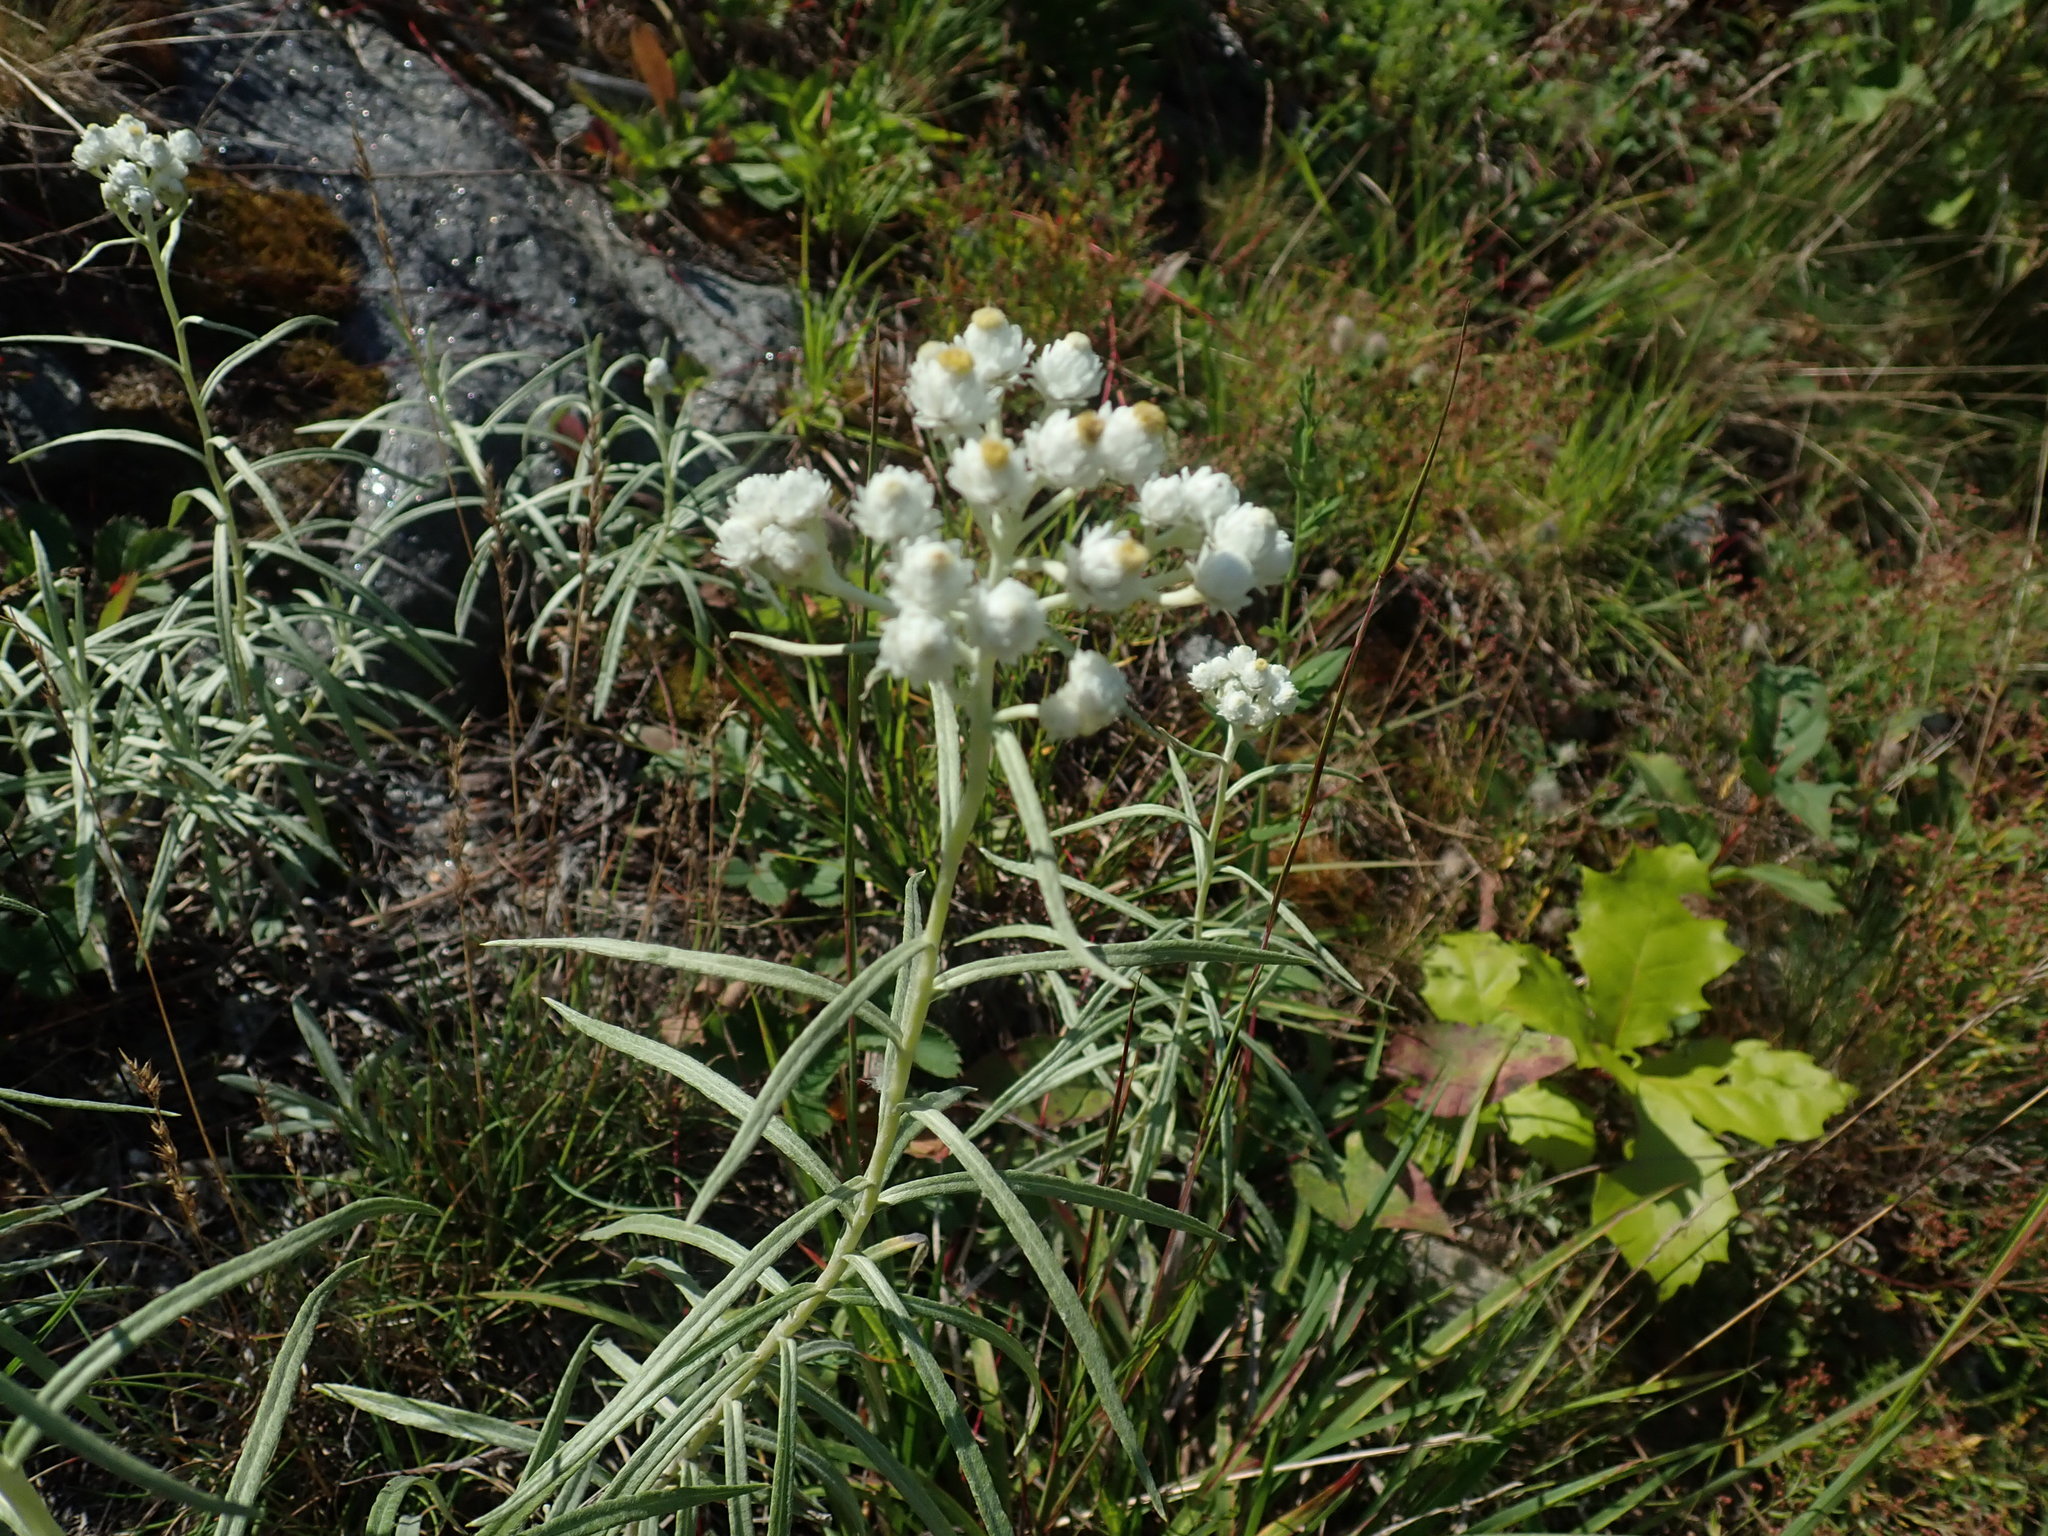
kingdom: Plantae
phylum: Tracheophyta
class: Magnoliopsida
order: Asterales
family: Asteraceae
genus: Anaphalis
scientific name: Anaphalis margaritacea
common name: Pearly everlasting
